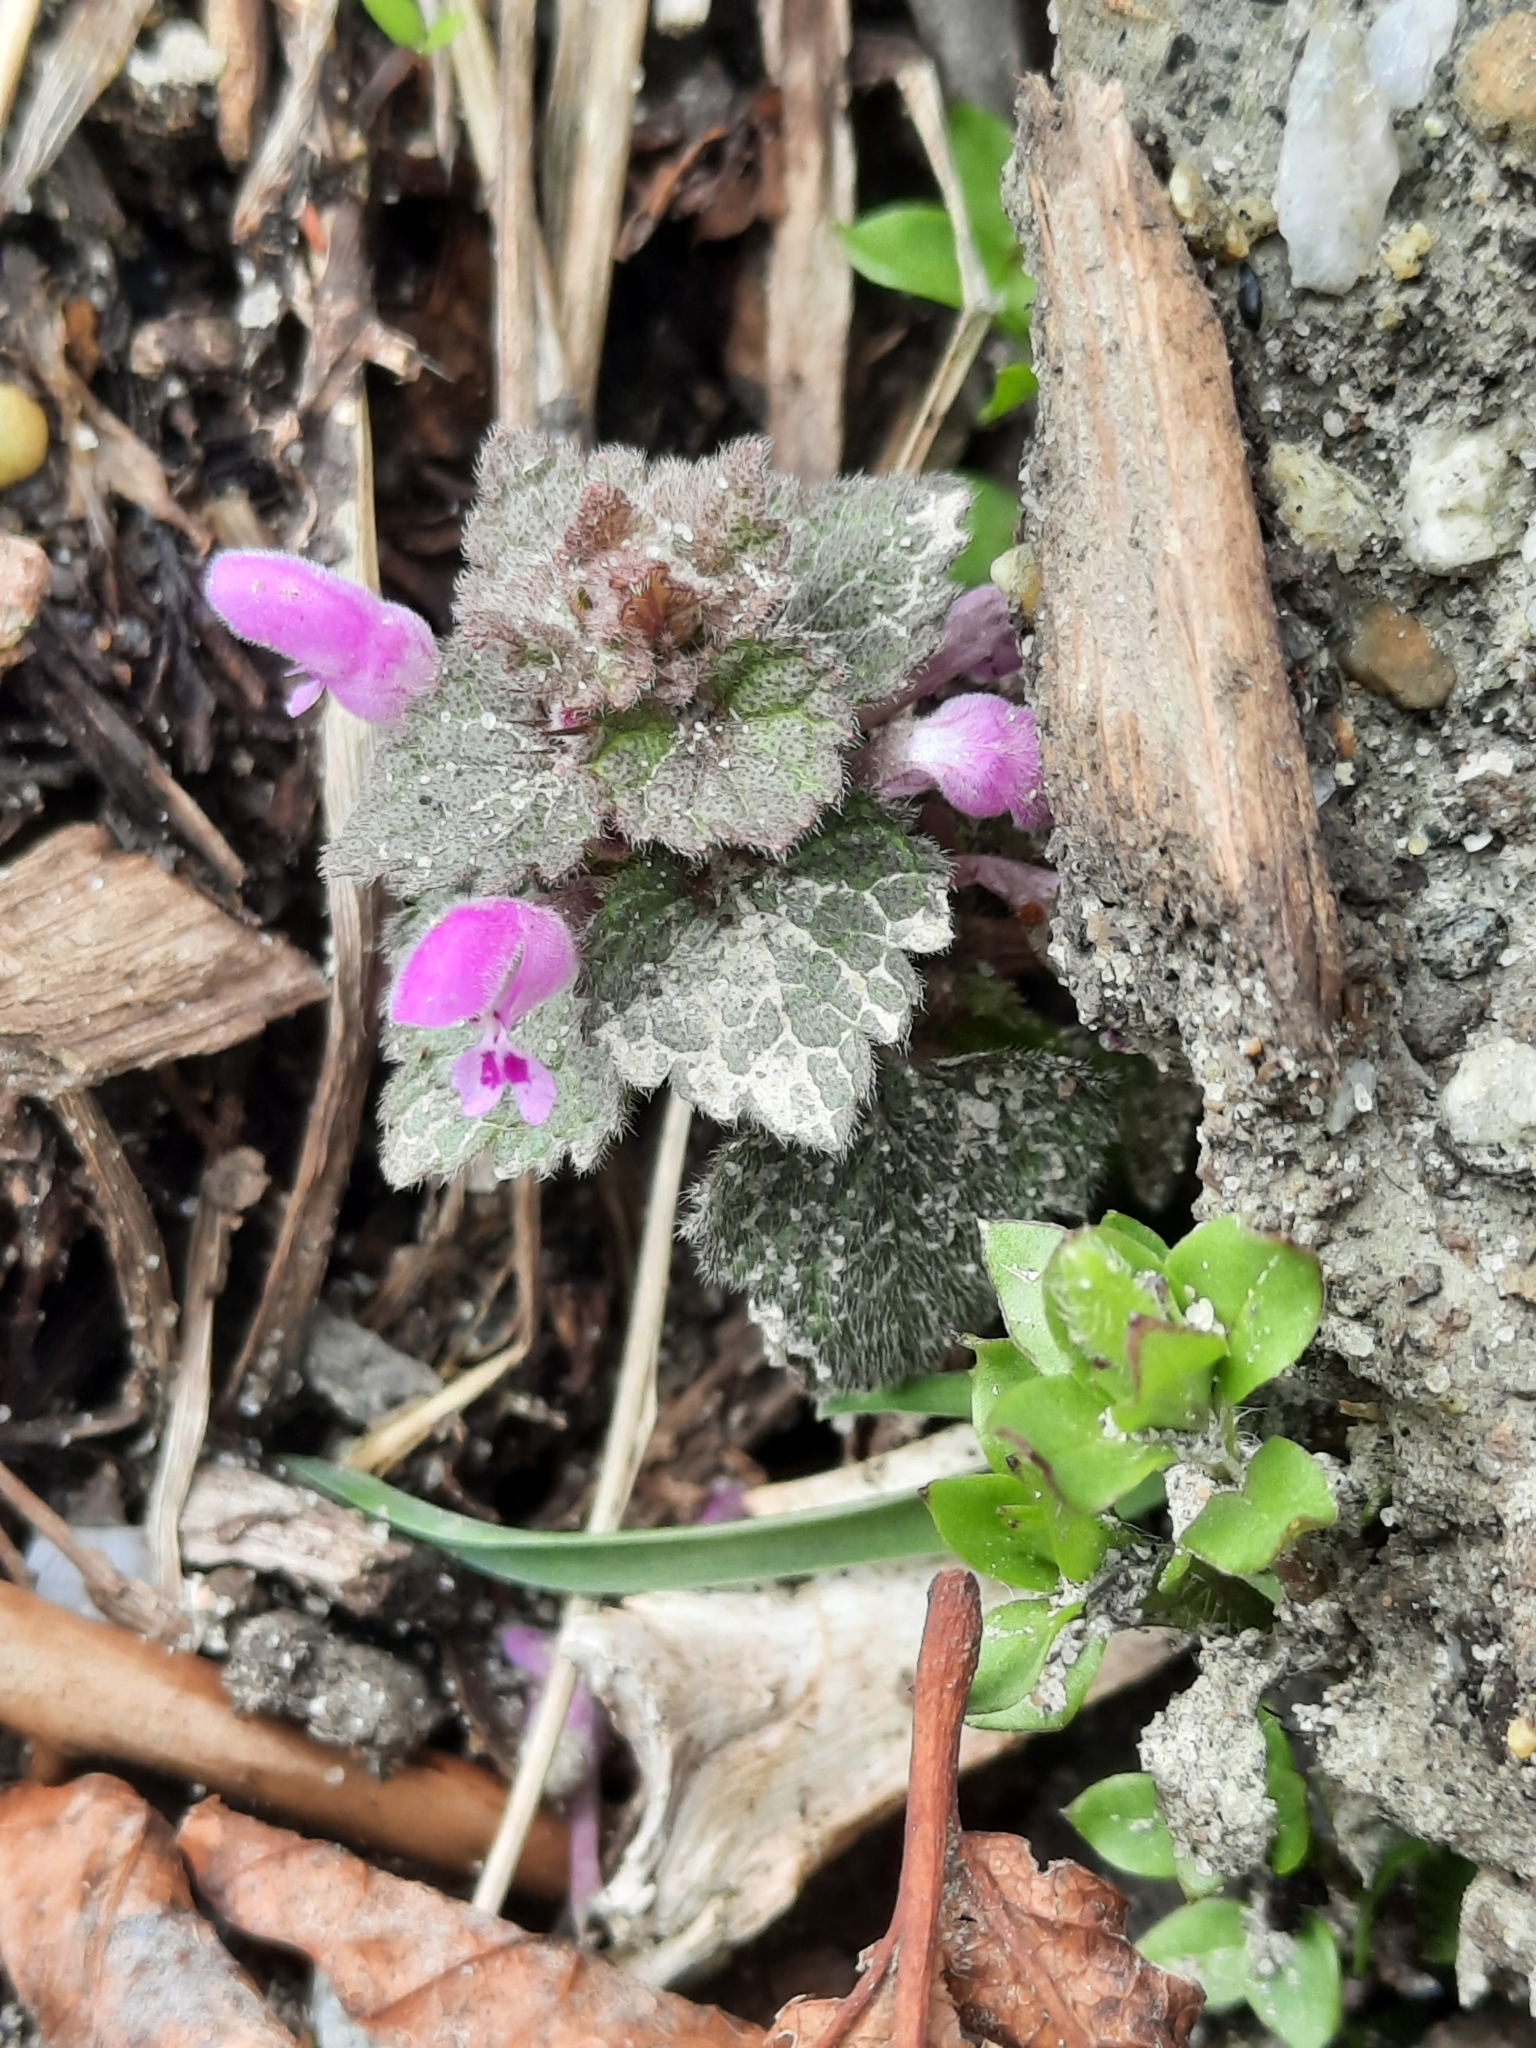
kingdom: Plantae
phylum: Tracheophyta
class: Magnoliopsida
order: Lamiales
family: Lamiaceae
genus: Lamium
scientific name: Lamium purpureum
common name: Red dead-nettle
